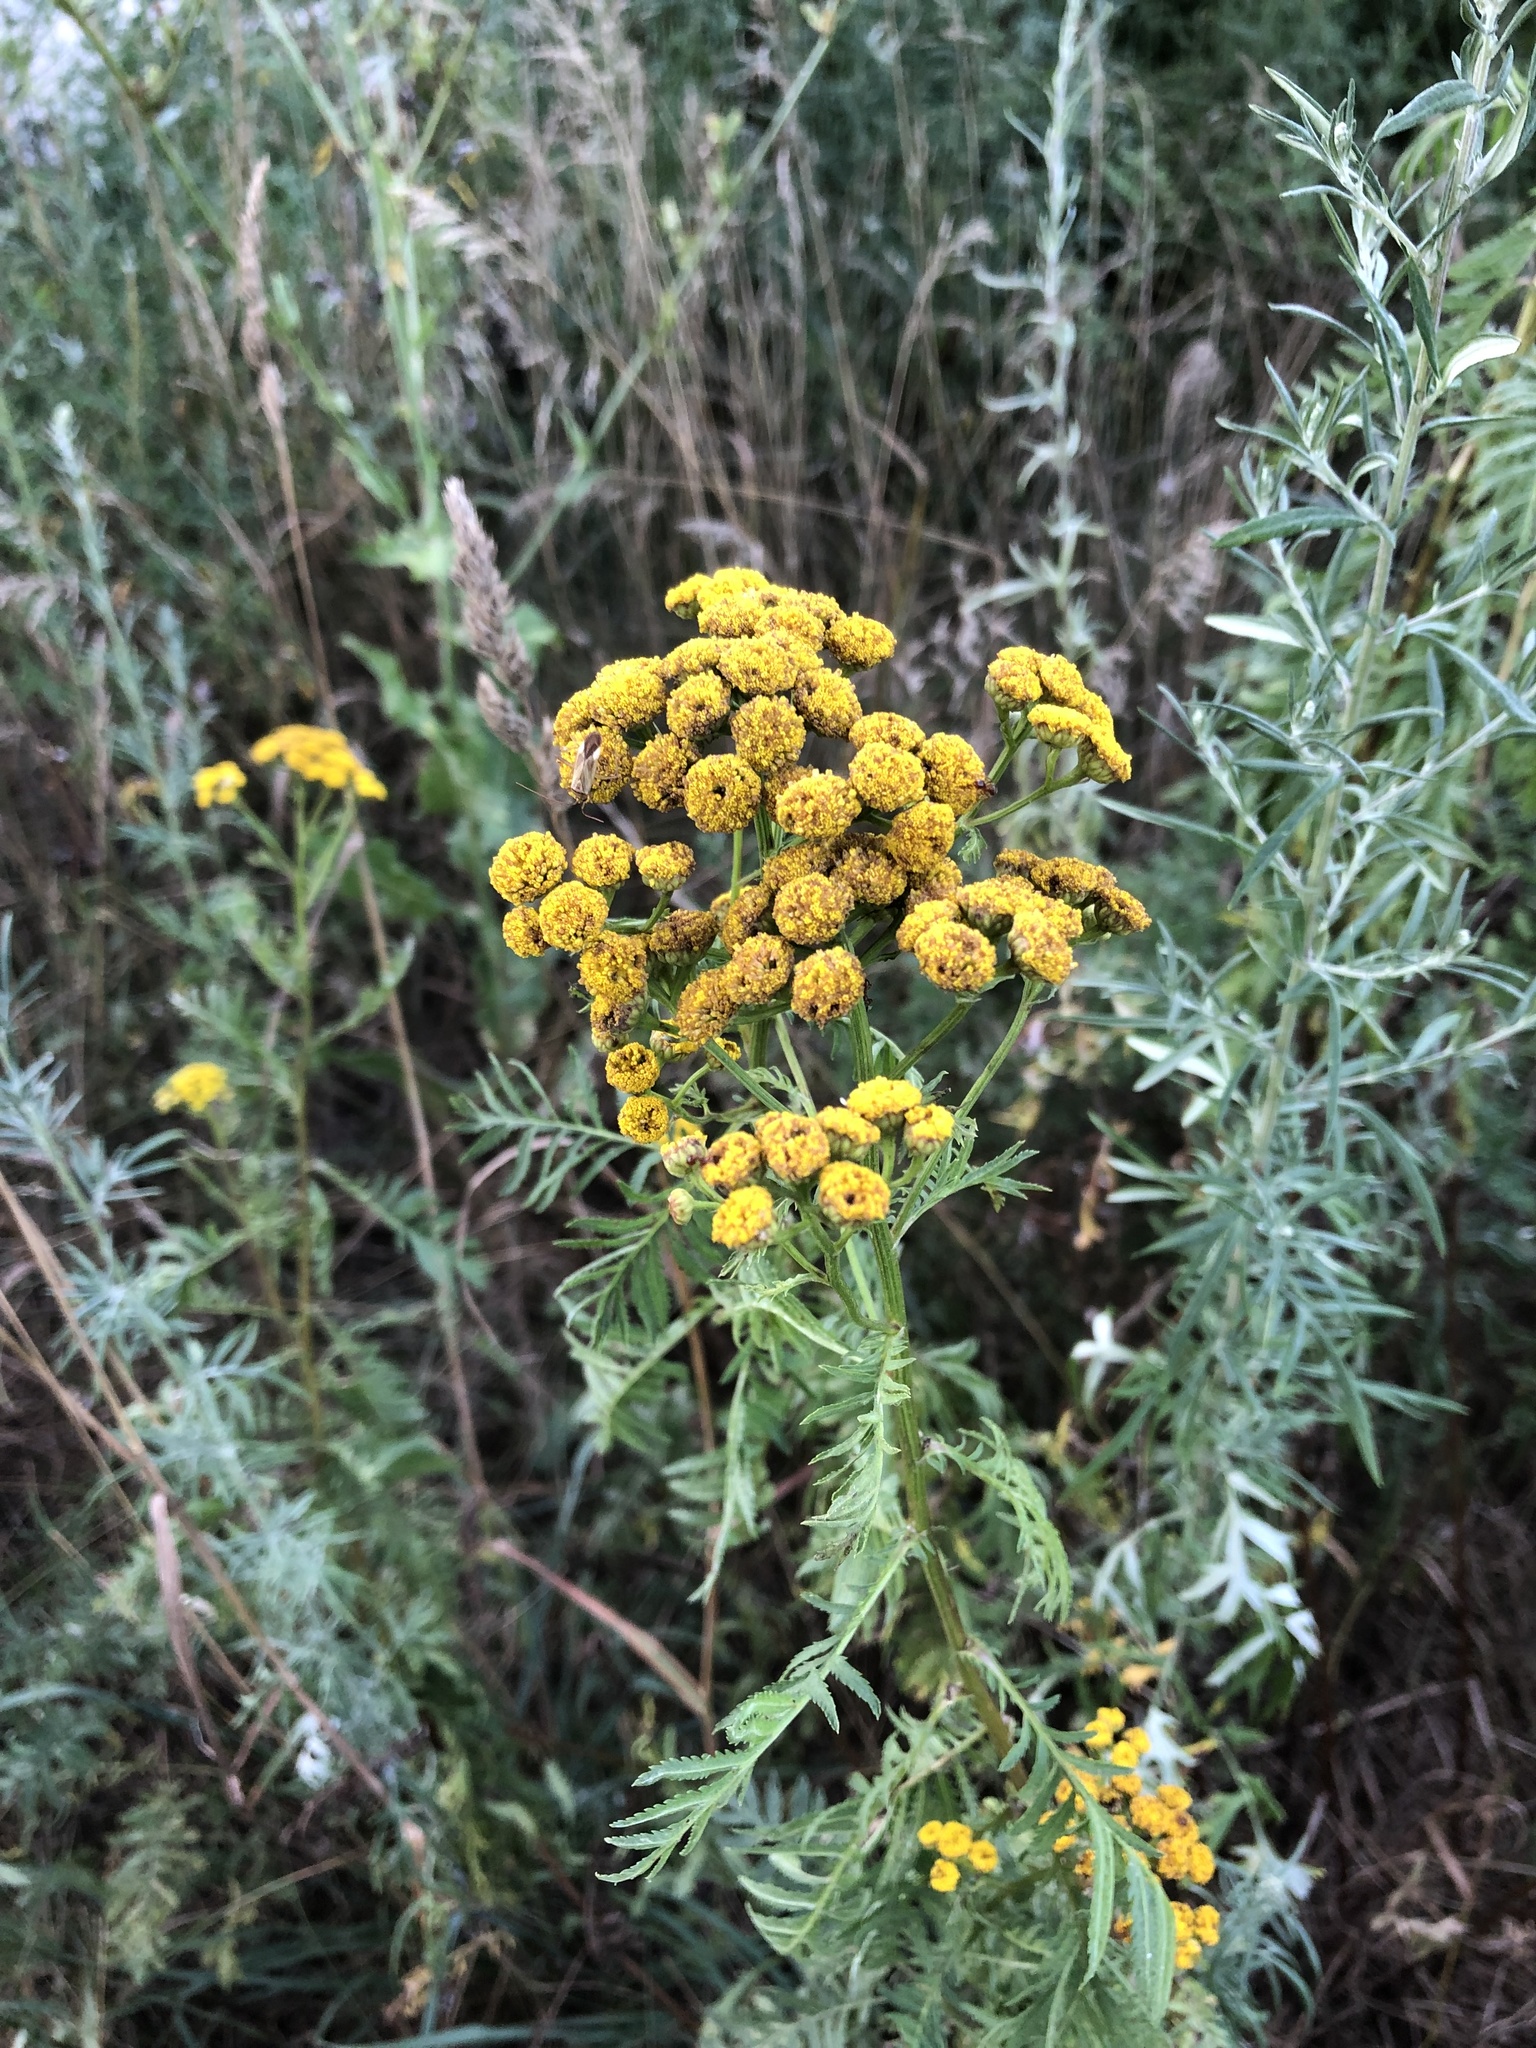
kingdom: Plantae
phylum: Tracheophyta
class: Magnoliopsida
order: Asterales
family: Asteraceae
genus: Tanacetum
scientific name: Tanacetum vulgare
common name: Common tansy
